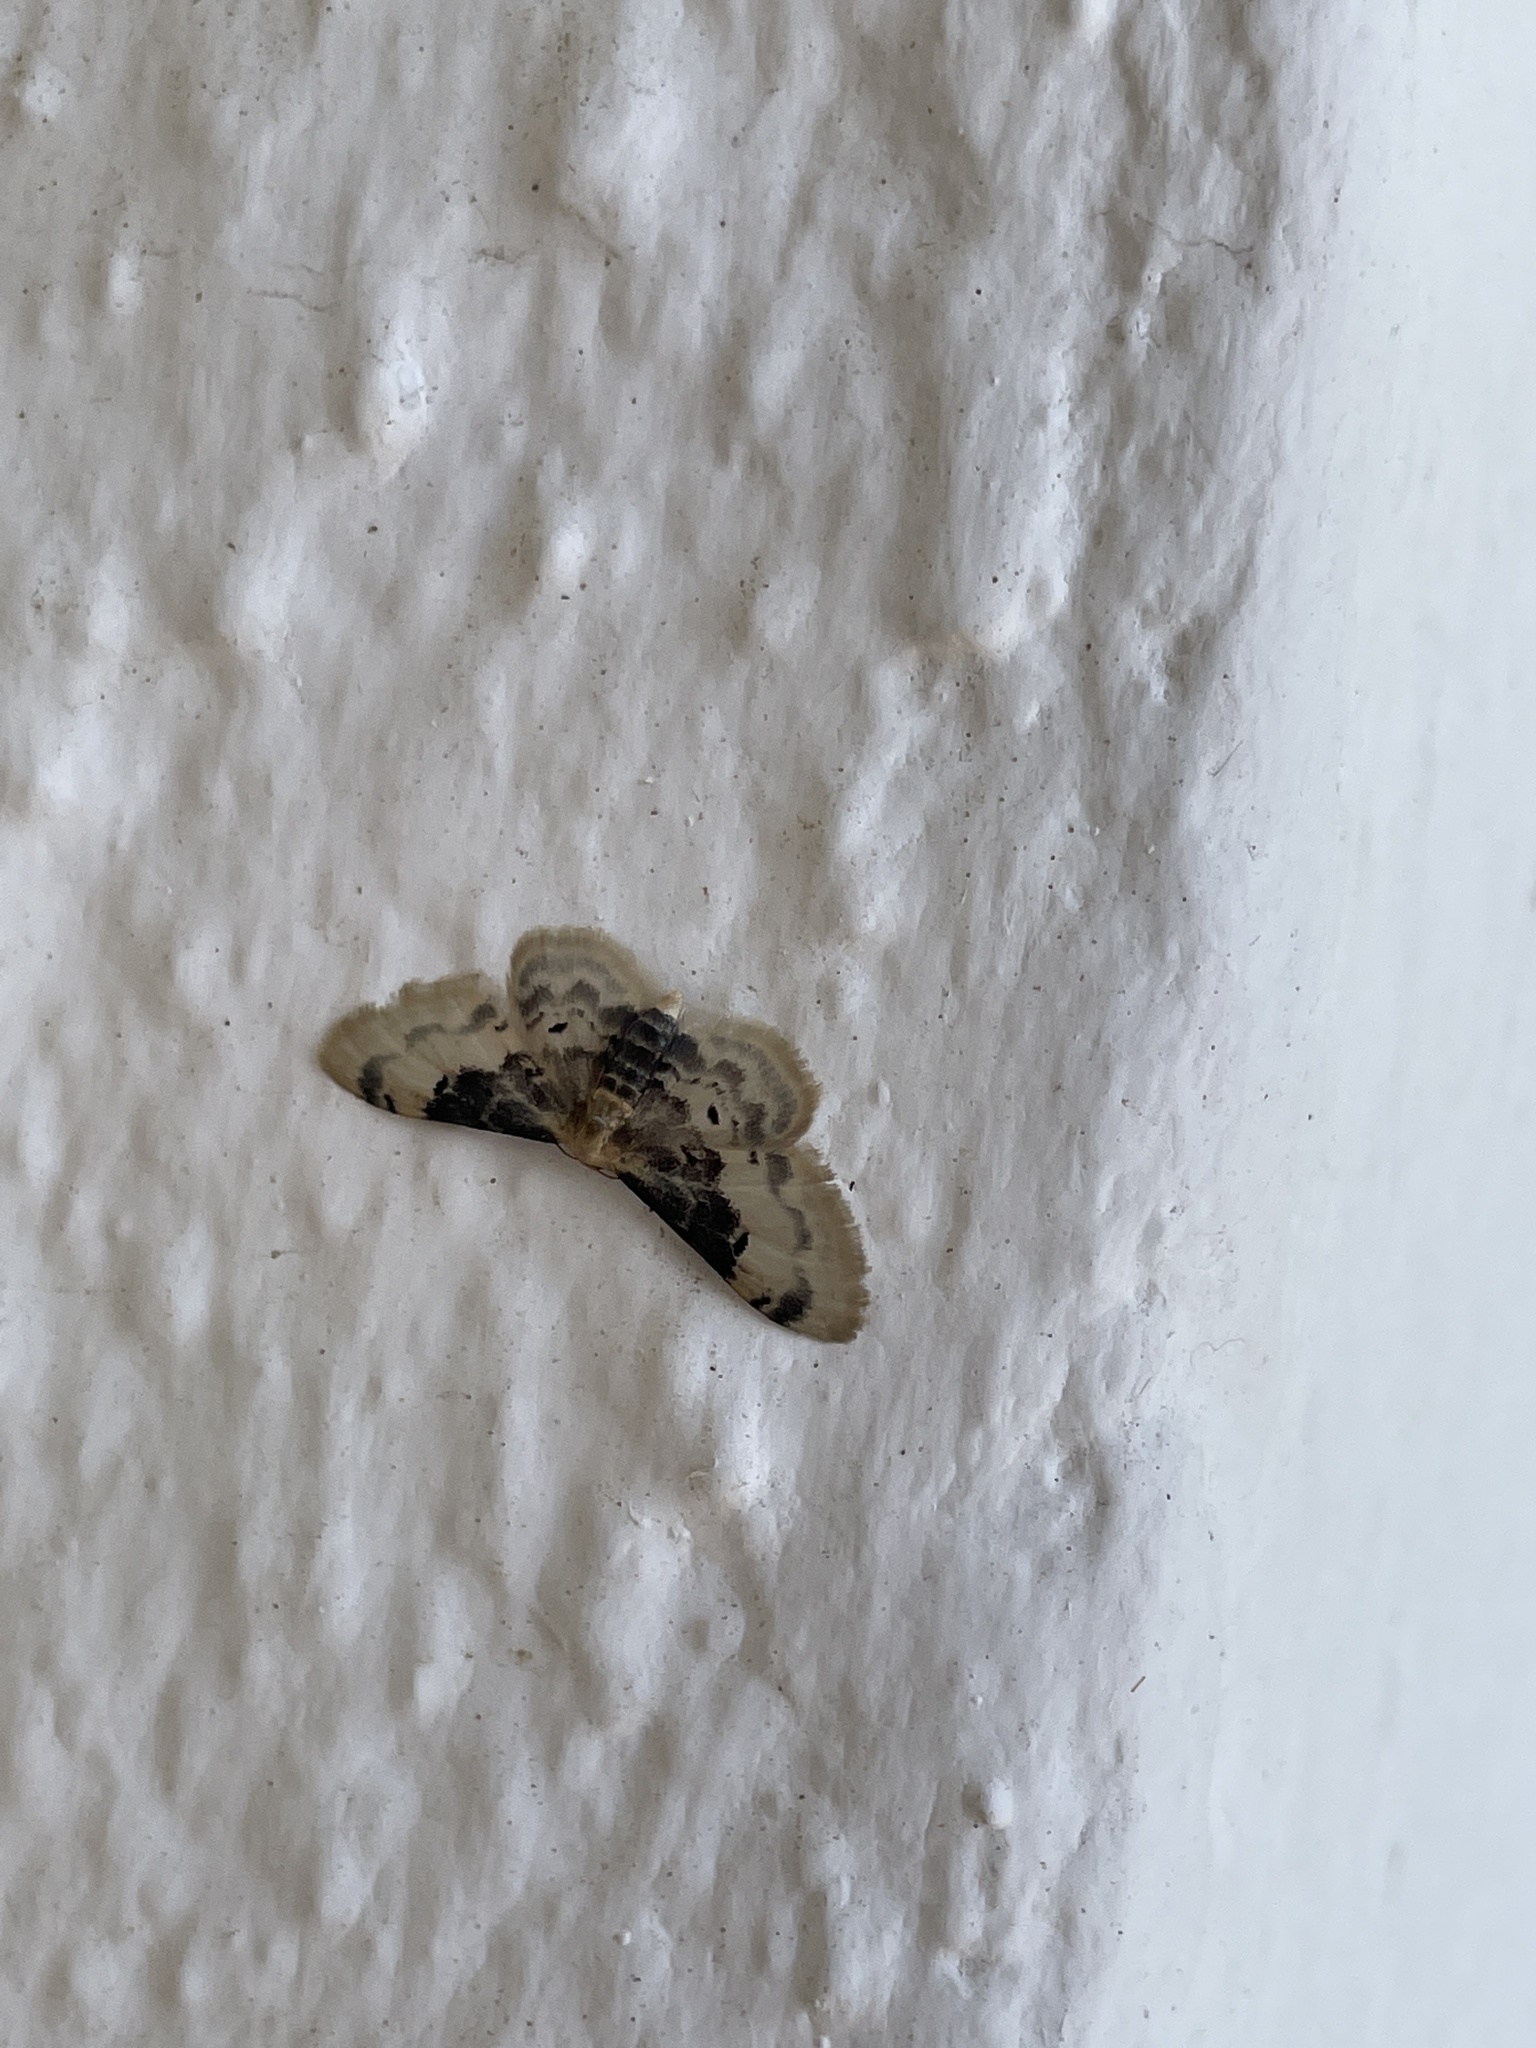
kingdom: Animalia
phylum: Arthropoda
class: Insecta
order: Lepidoptera
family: Geometridae
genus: Idaea
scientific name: Idaea filicata
